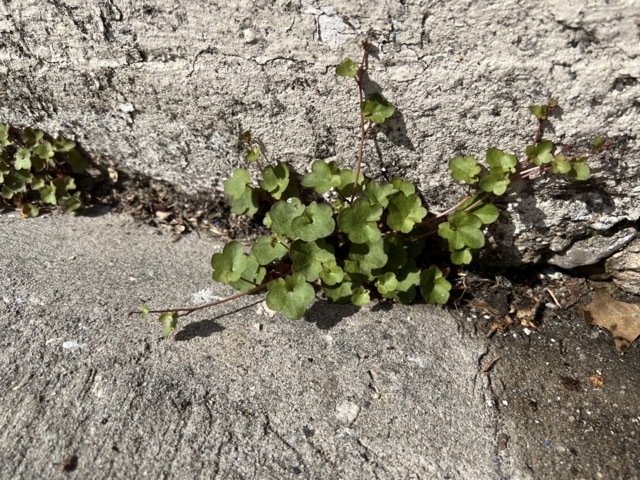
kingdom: Plantae
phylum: Tracheophyta
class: Magnoliopsida
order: Lamiales
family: Plantaginaceae
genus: Cymbalaria
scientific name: Cymbalaria muralis
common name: Ivy-leaved toadflax
